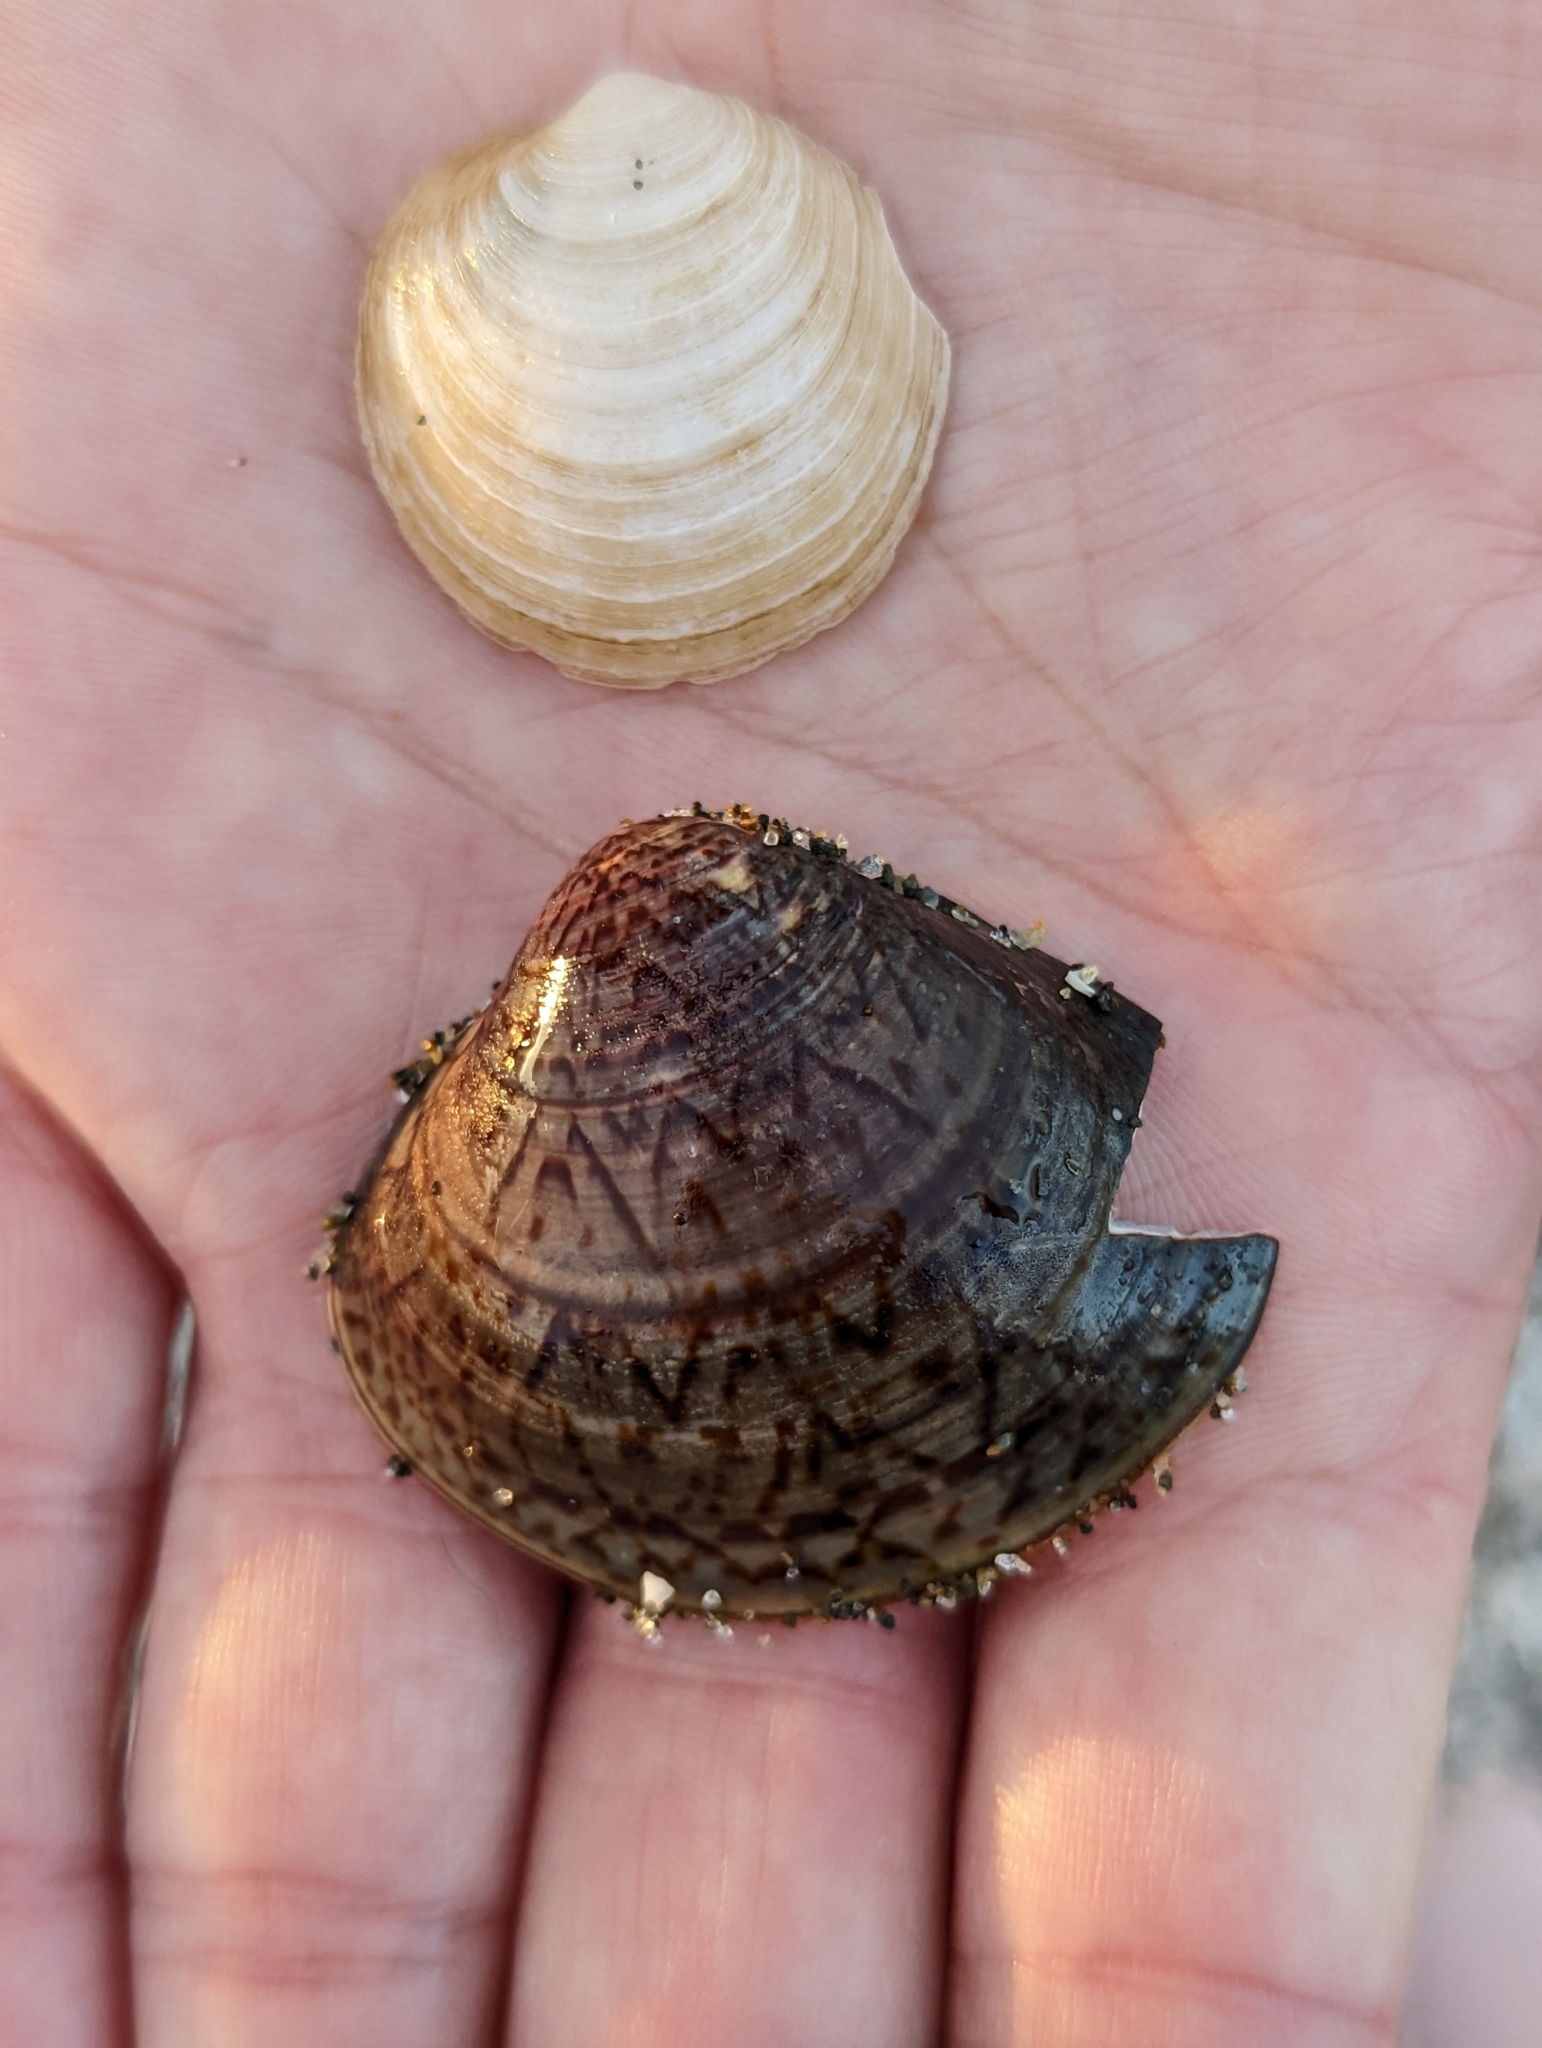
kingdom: Animalia
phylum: Mollusca
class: Bivalvia
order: Venerida
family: Veneridae
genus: Meretrix
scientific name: Meretrix petechialis
